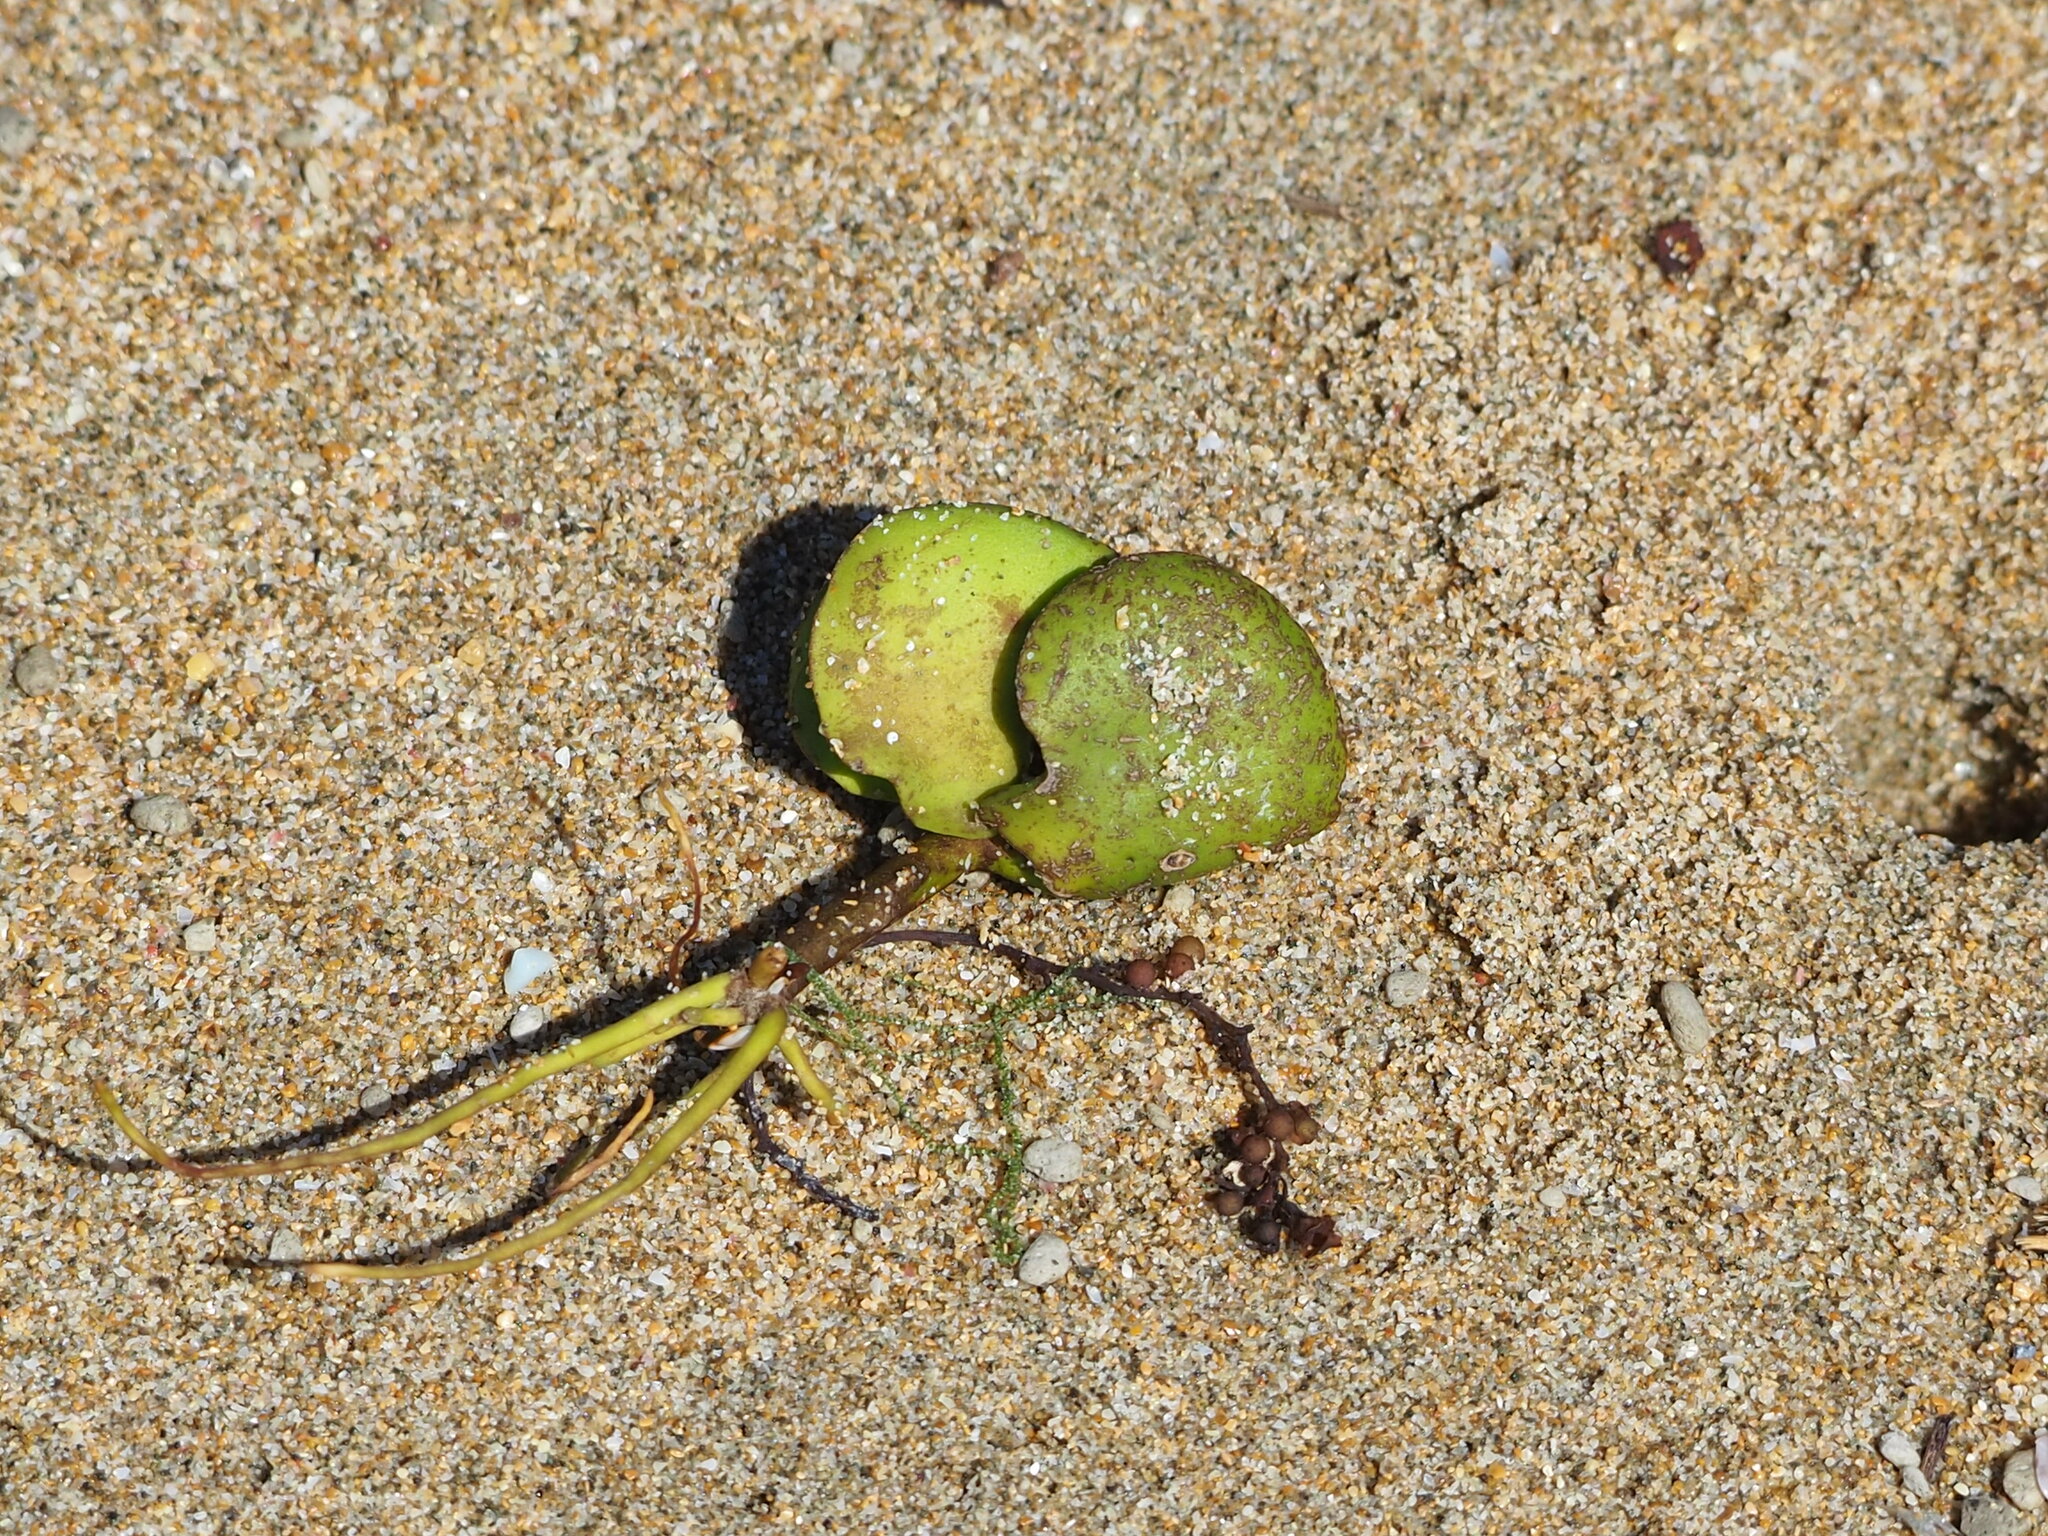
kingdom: Plantae
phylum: Tracheophyta
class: Magnoliopsida
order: Lamiales
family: Acanthaceae
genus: Avicennia
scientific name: Avicennia marina
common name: Gray mangrove
